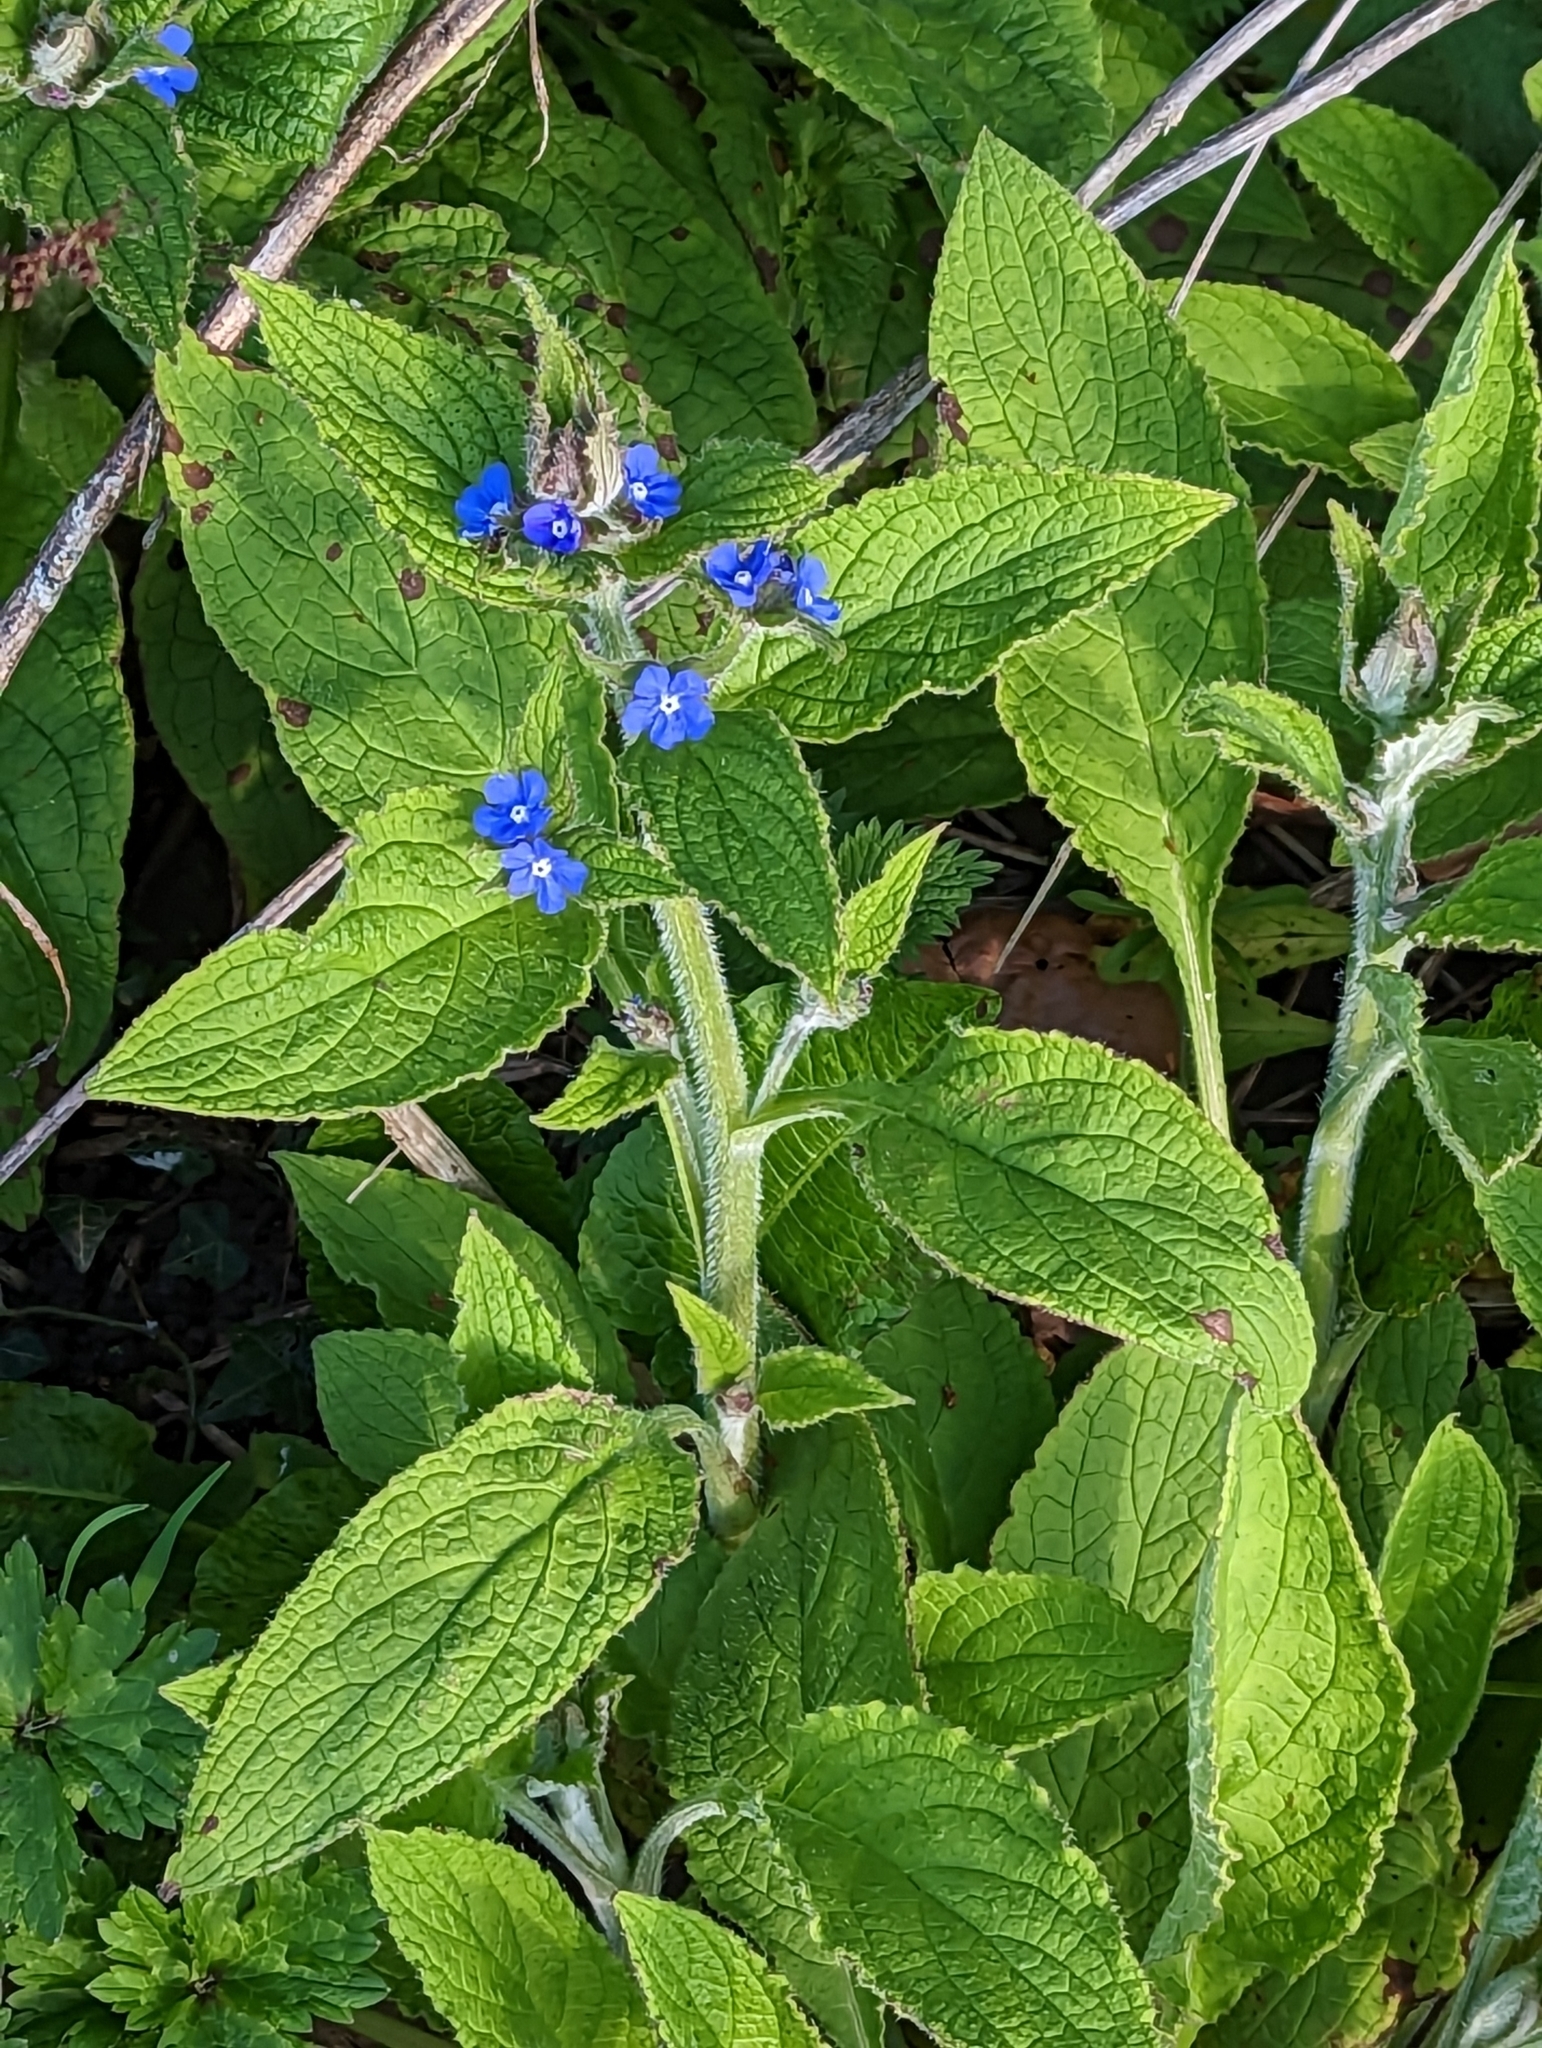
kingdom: Plantae
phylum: Tracheophyta
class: Magnoliopsida
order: Boraginales
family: Boraginaceae
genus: Pentaglottis
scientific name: Pentaglottis sempervirens
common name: Green alkanet
